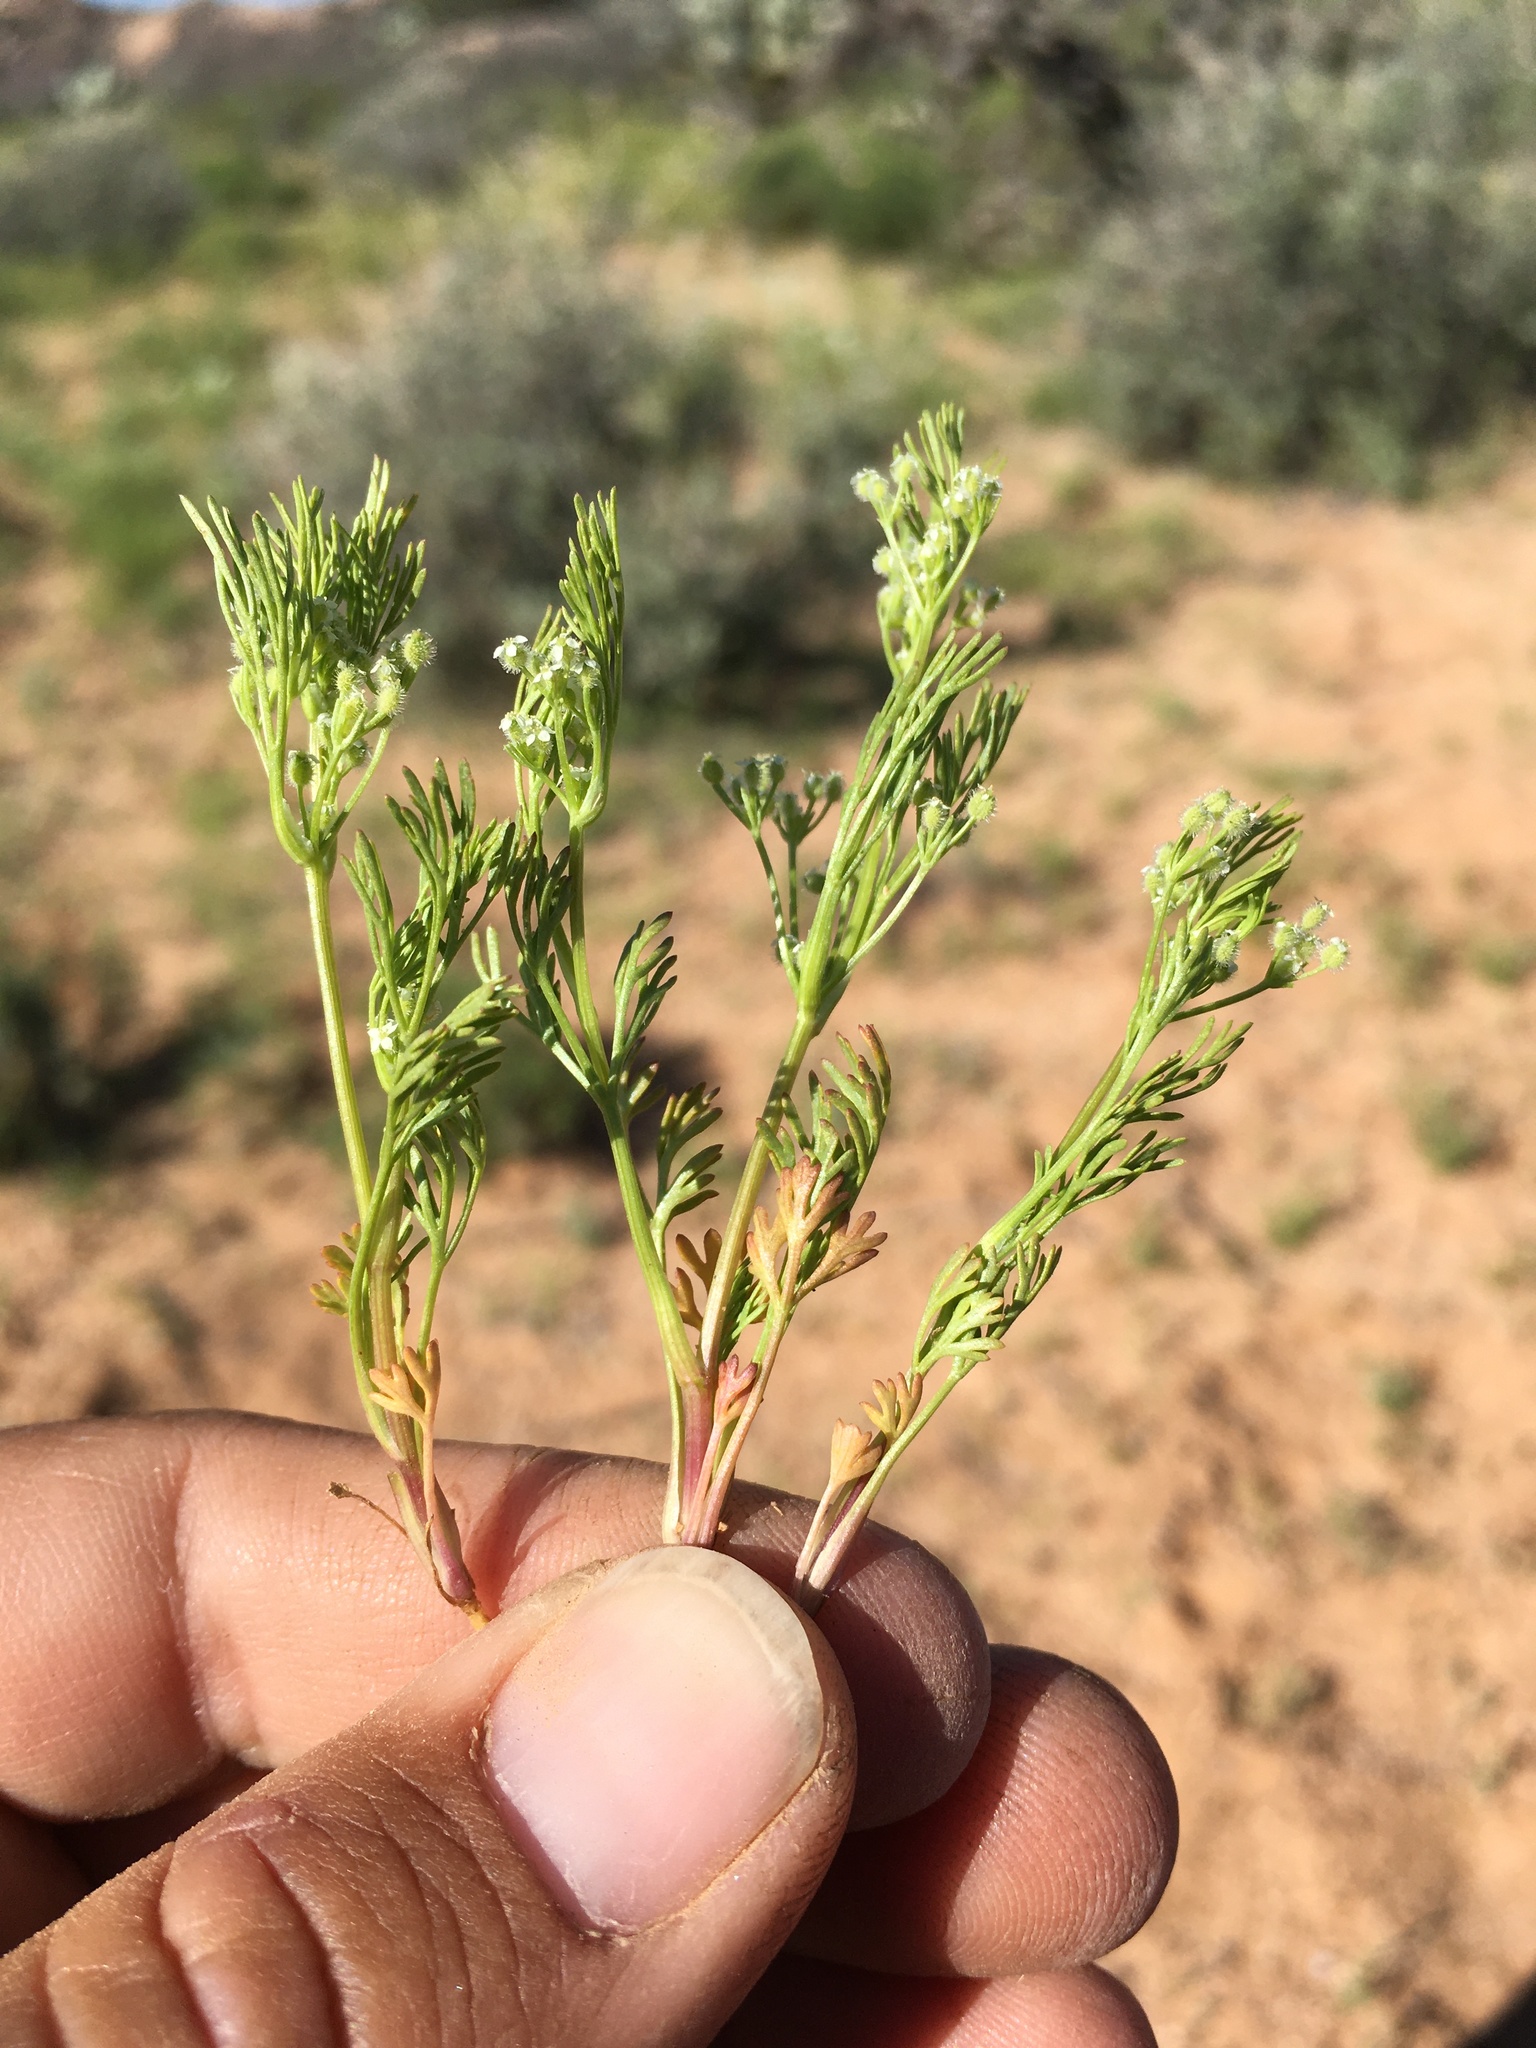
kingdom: Plantae
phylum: Tracheophyta
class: Magnoliopsida
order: Apiales
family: Apiaceae
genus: Spermolepis
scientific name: Spermolepis lateriflora
